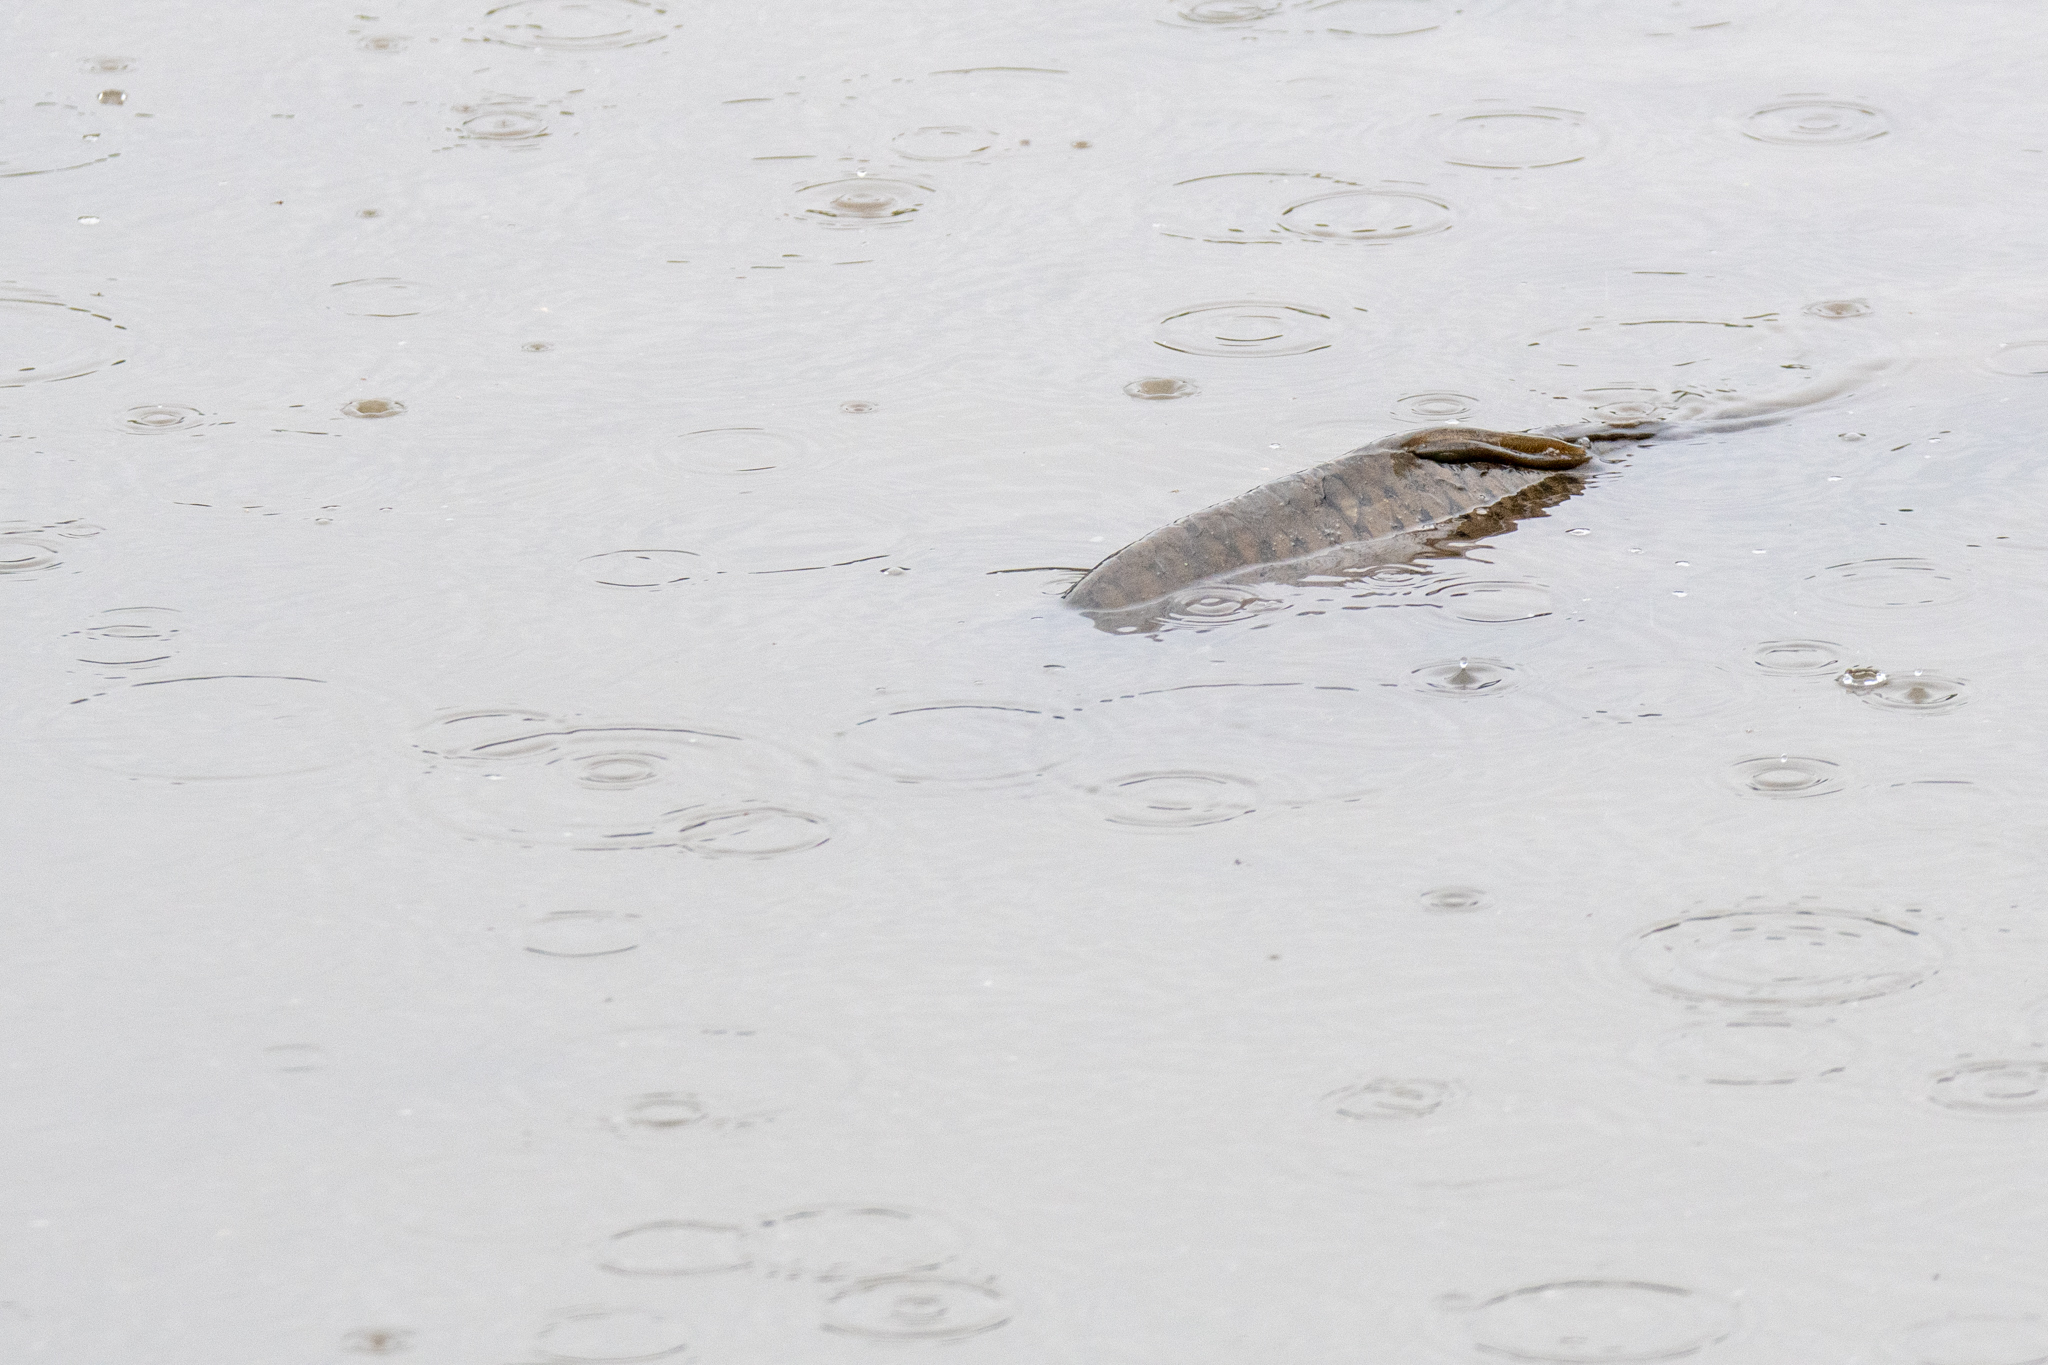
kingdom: Animalia
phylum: Chordata
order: Cypriniformes
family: Cyprinidae
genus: Cyprinus
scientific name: Cyprinus carpio
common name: Common carp
